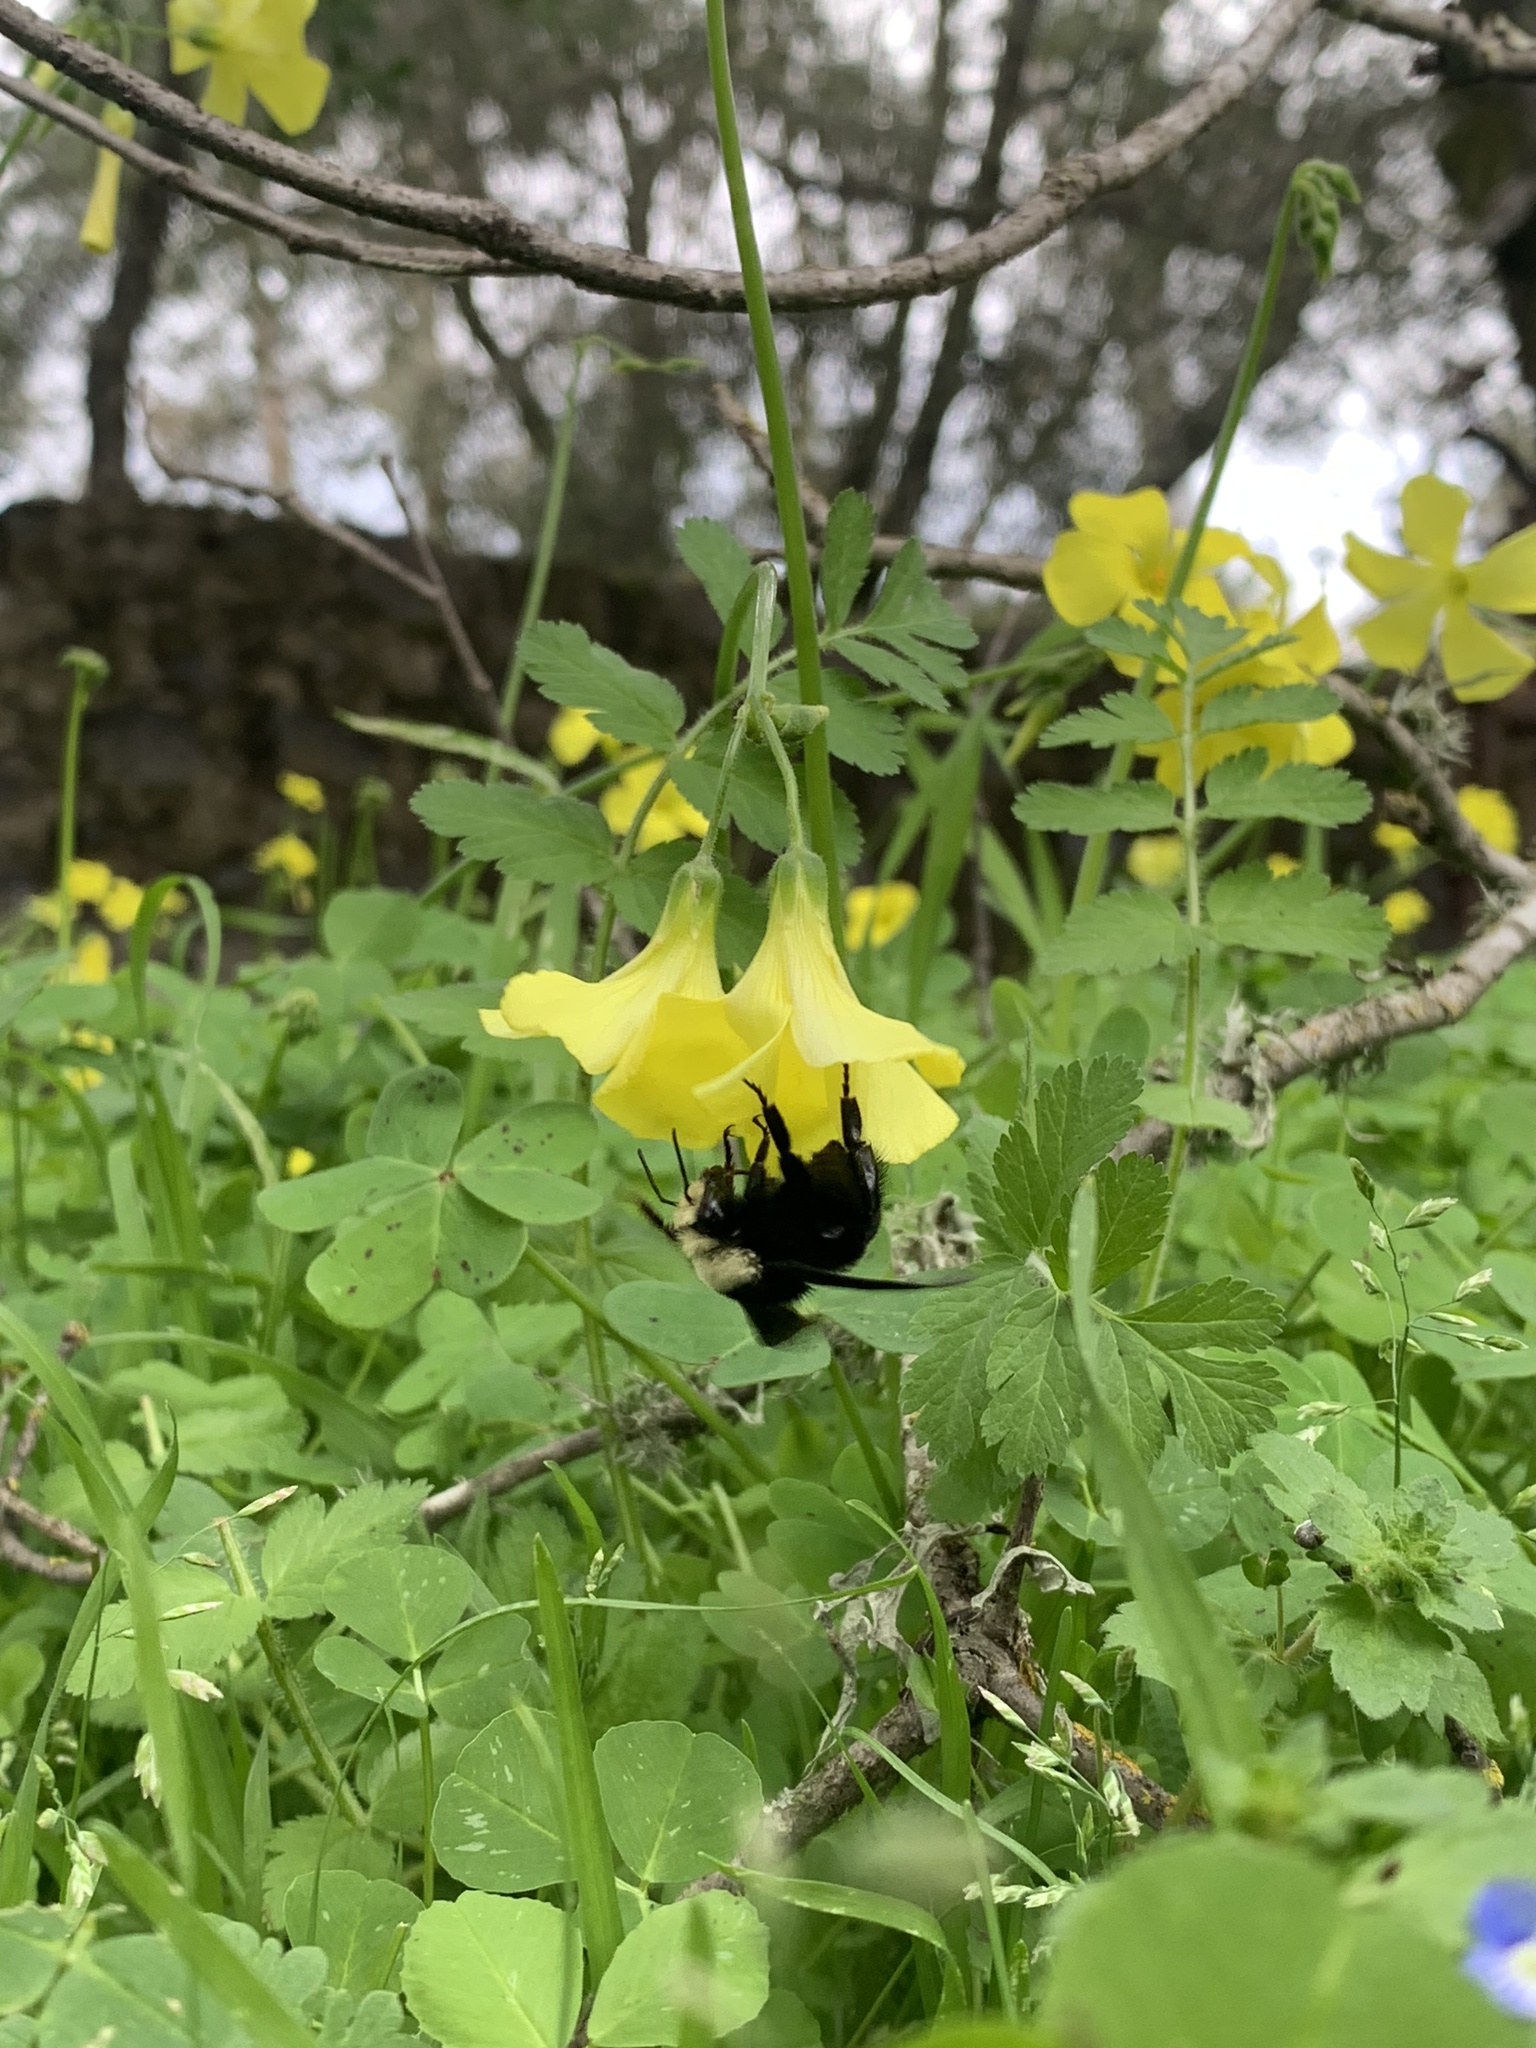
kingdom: Animalia
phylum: Arthropoda
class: Insecta
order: Hymenoptera
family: Apidae
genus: Pyrobombus
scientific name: Pyrobombus
